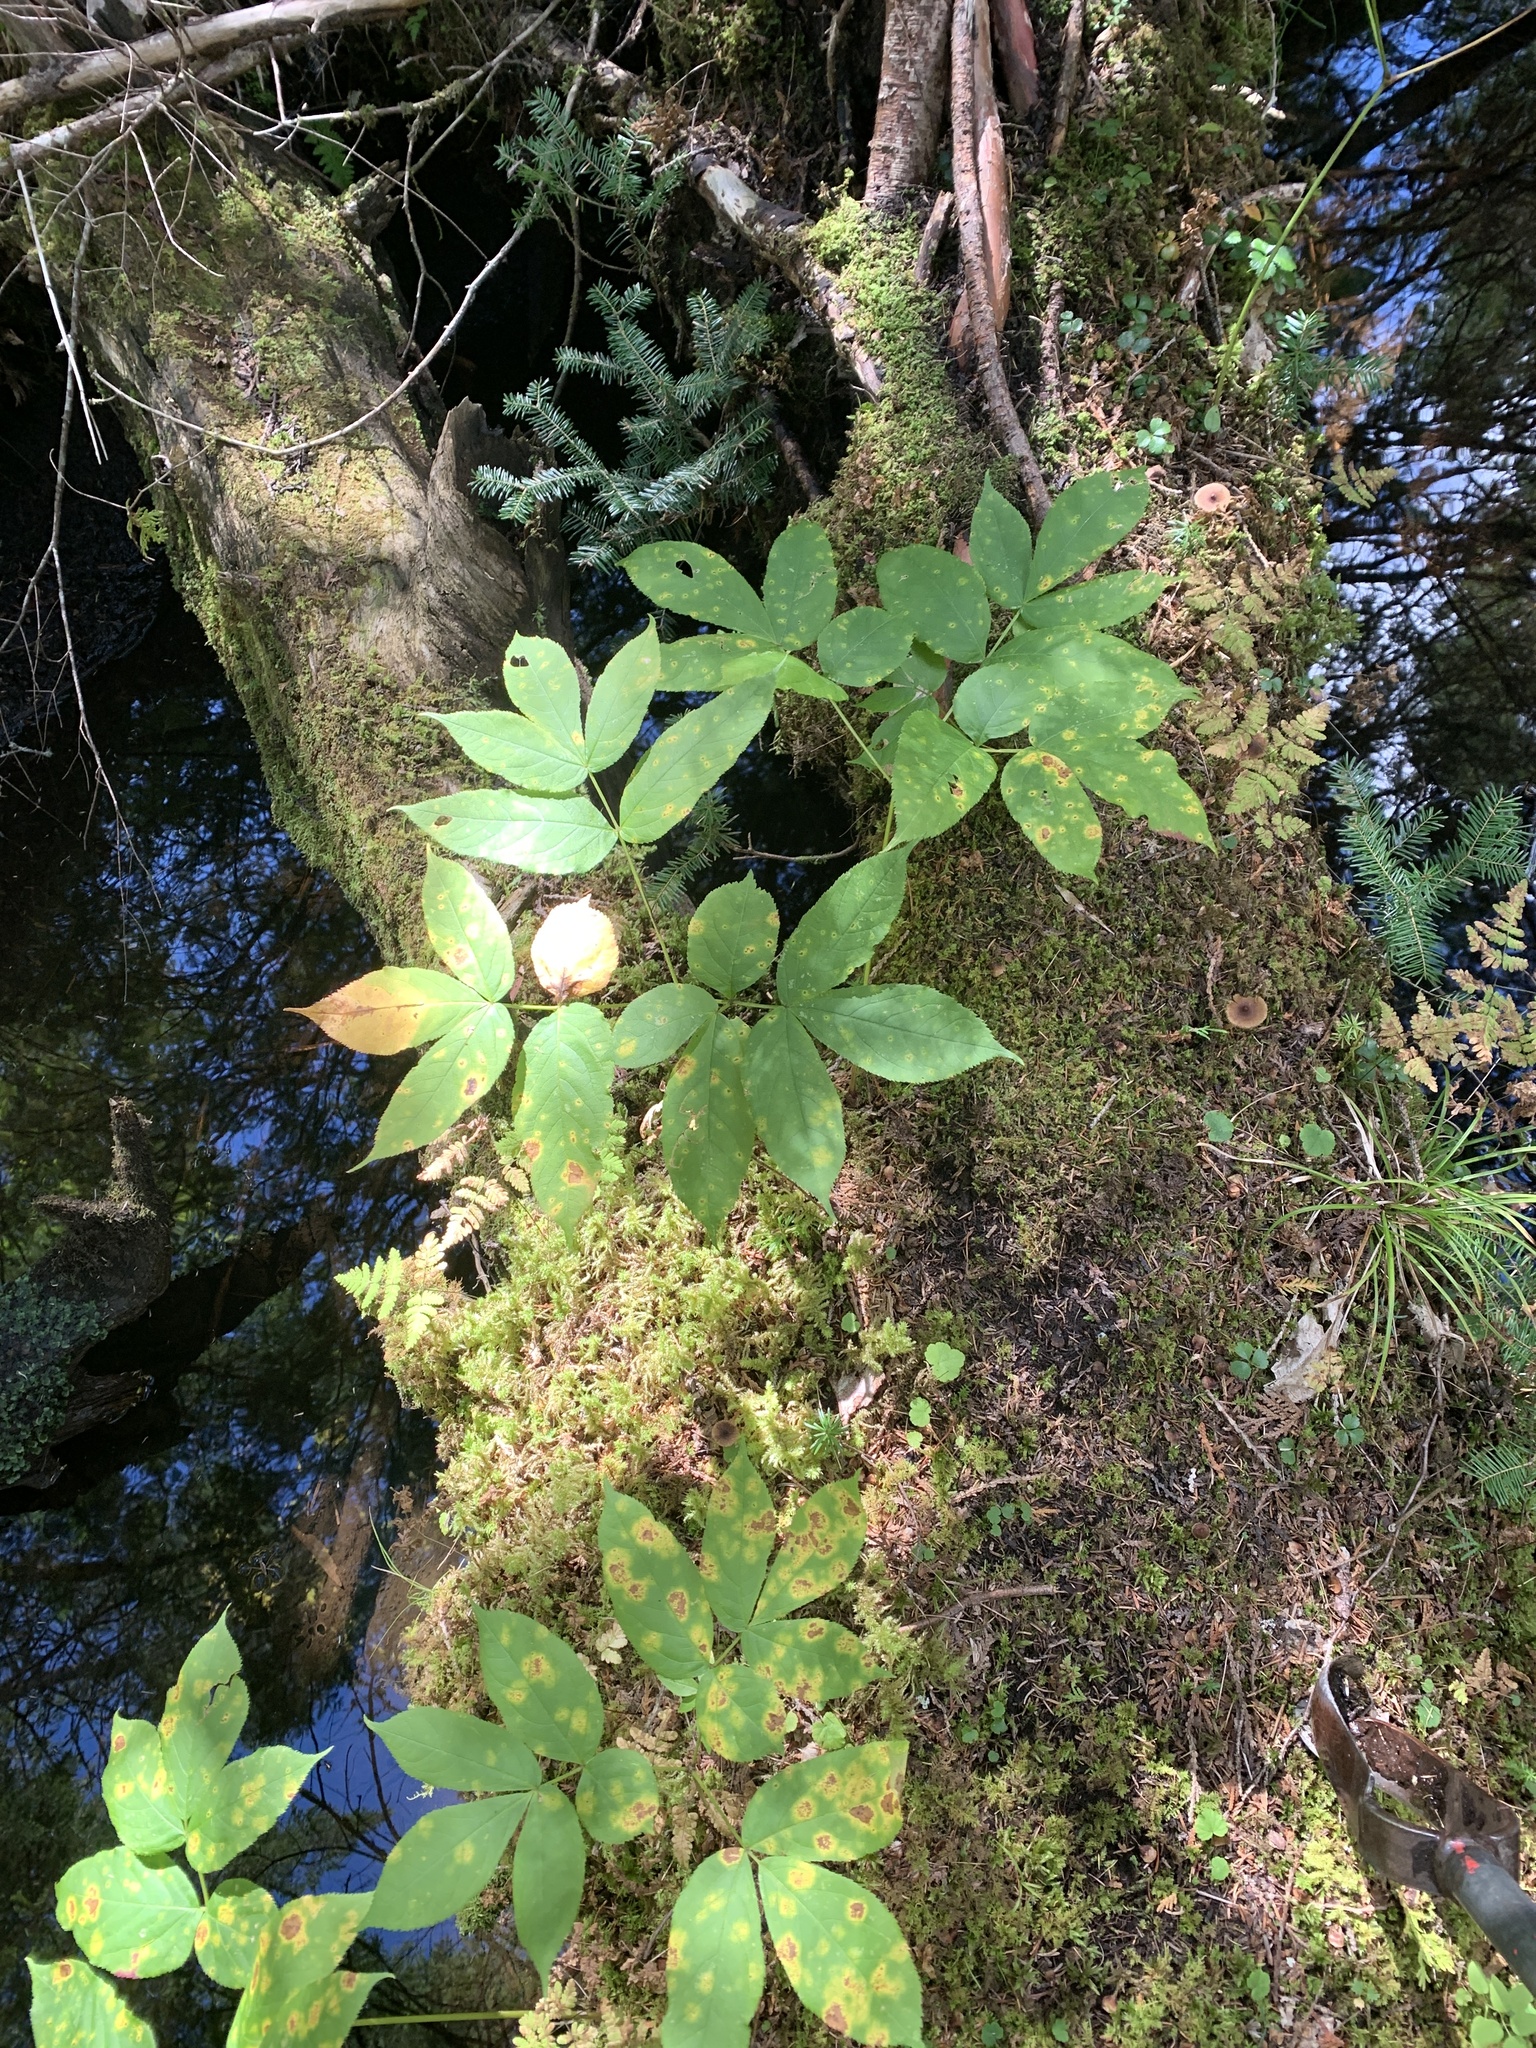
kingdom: Plantae
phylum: Tracheophyta
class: Magnoliopsida
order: Apiales
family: Araliaceae
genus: Aralia
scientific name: Aralia nudicaulis
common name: Wild sarsaparilla
